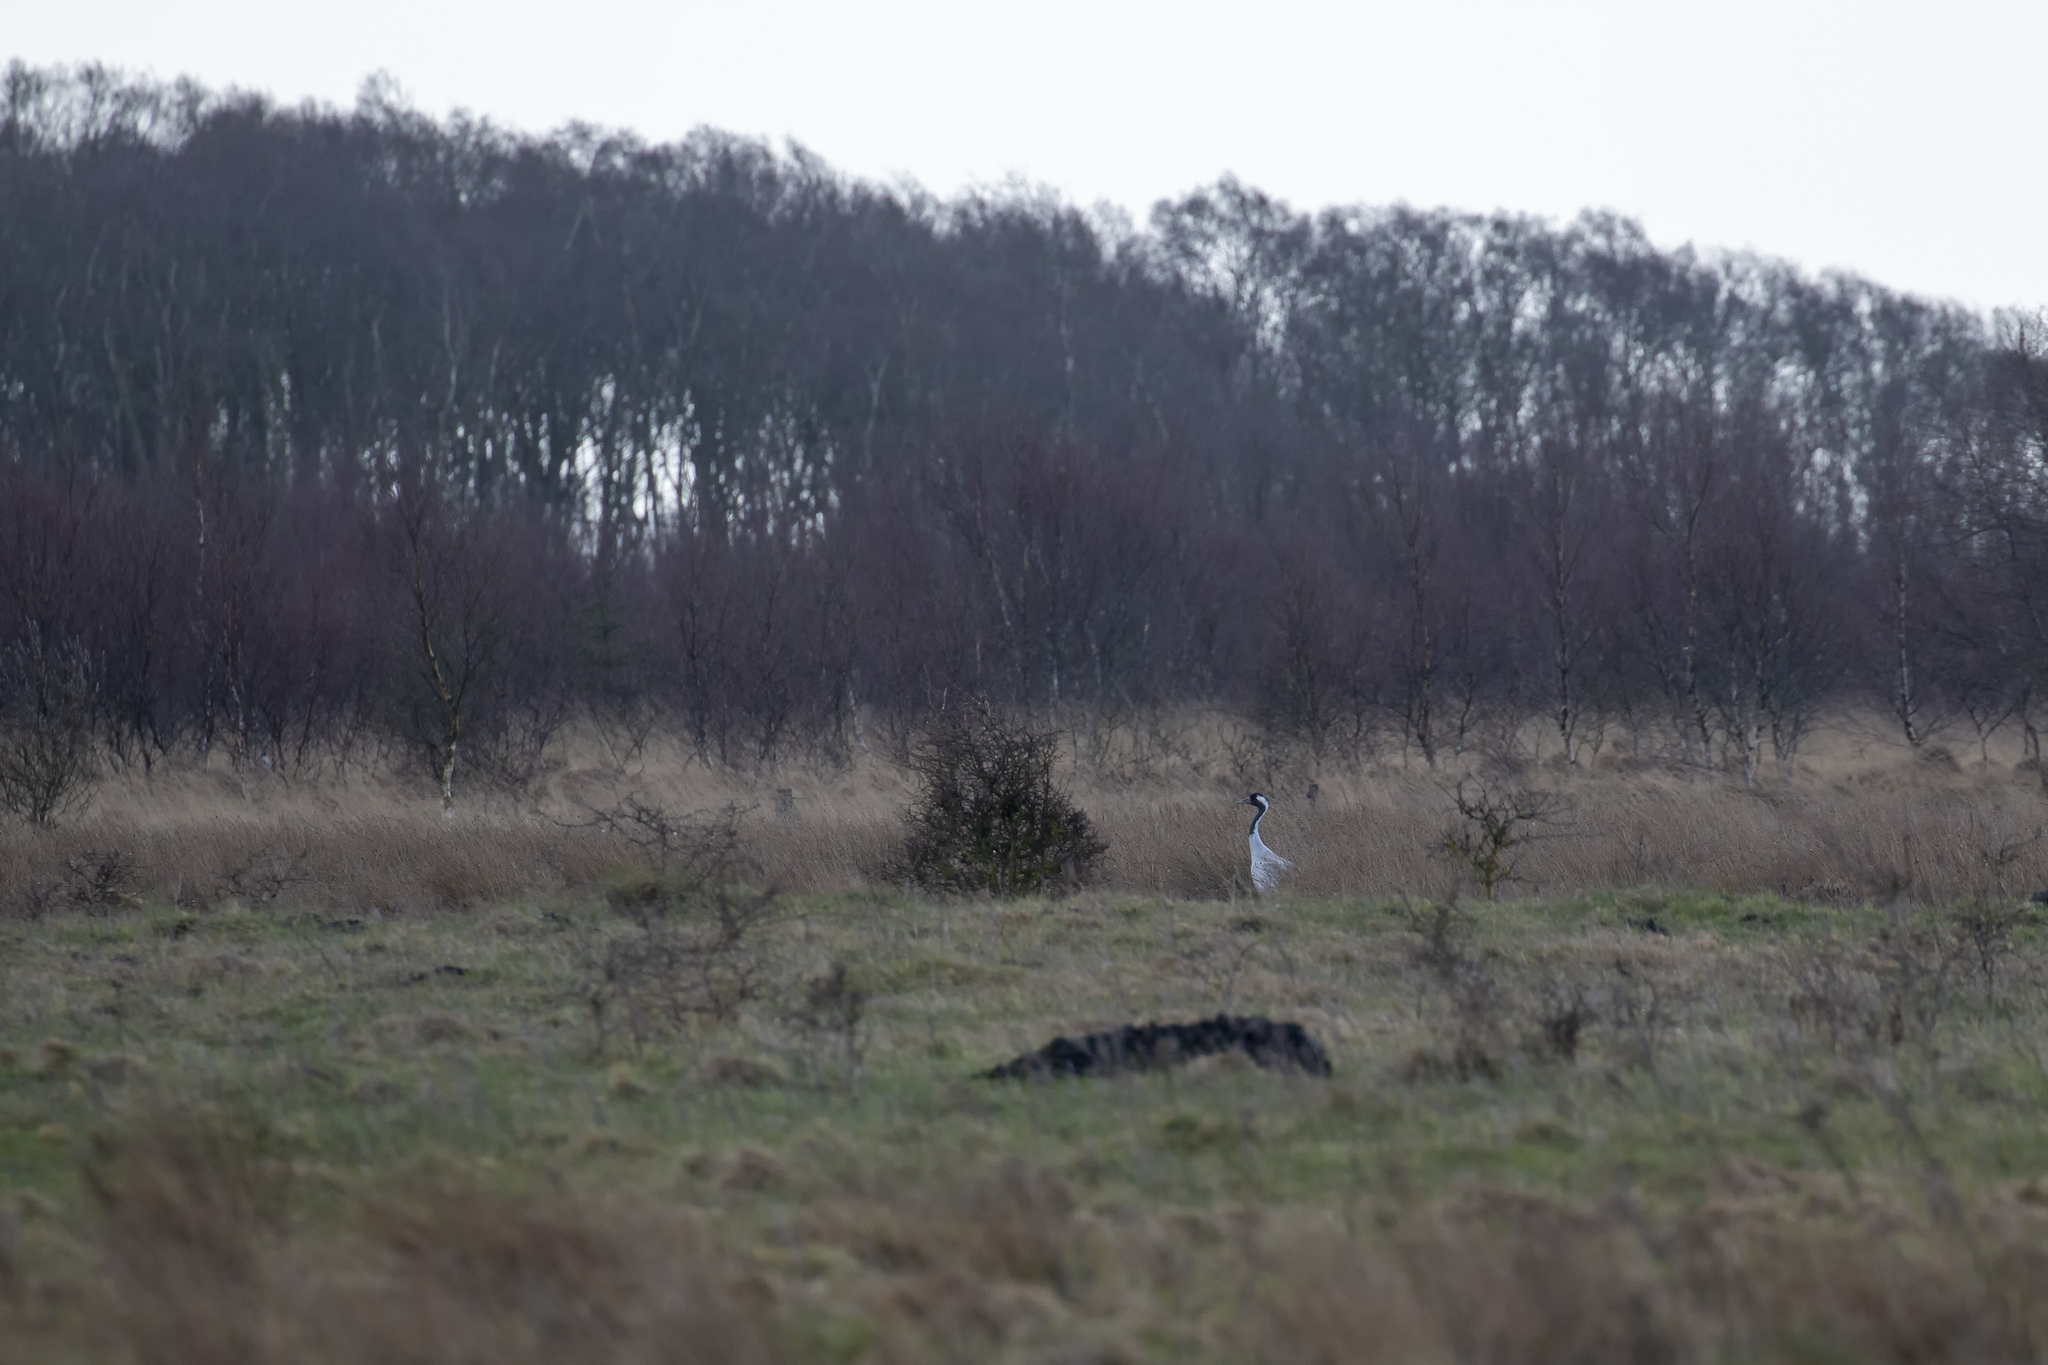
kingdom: Animalia
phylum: Chordata
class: Aves
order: Gruiformes
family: Gruidae
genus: Grus
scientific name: Grus grus
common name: Common crane
